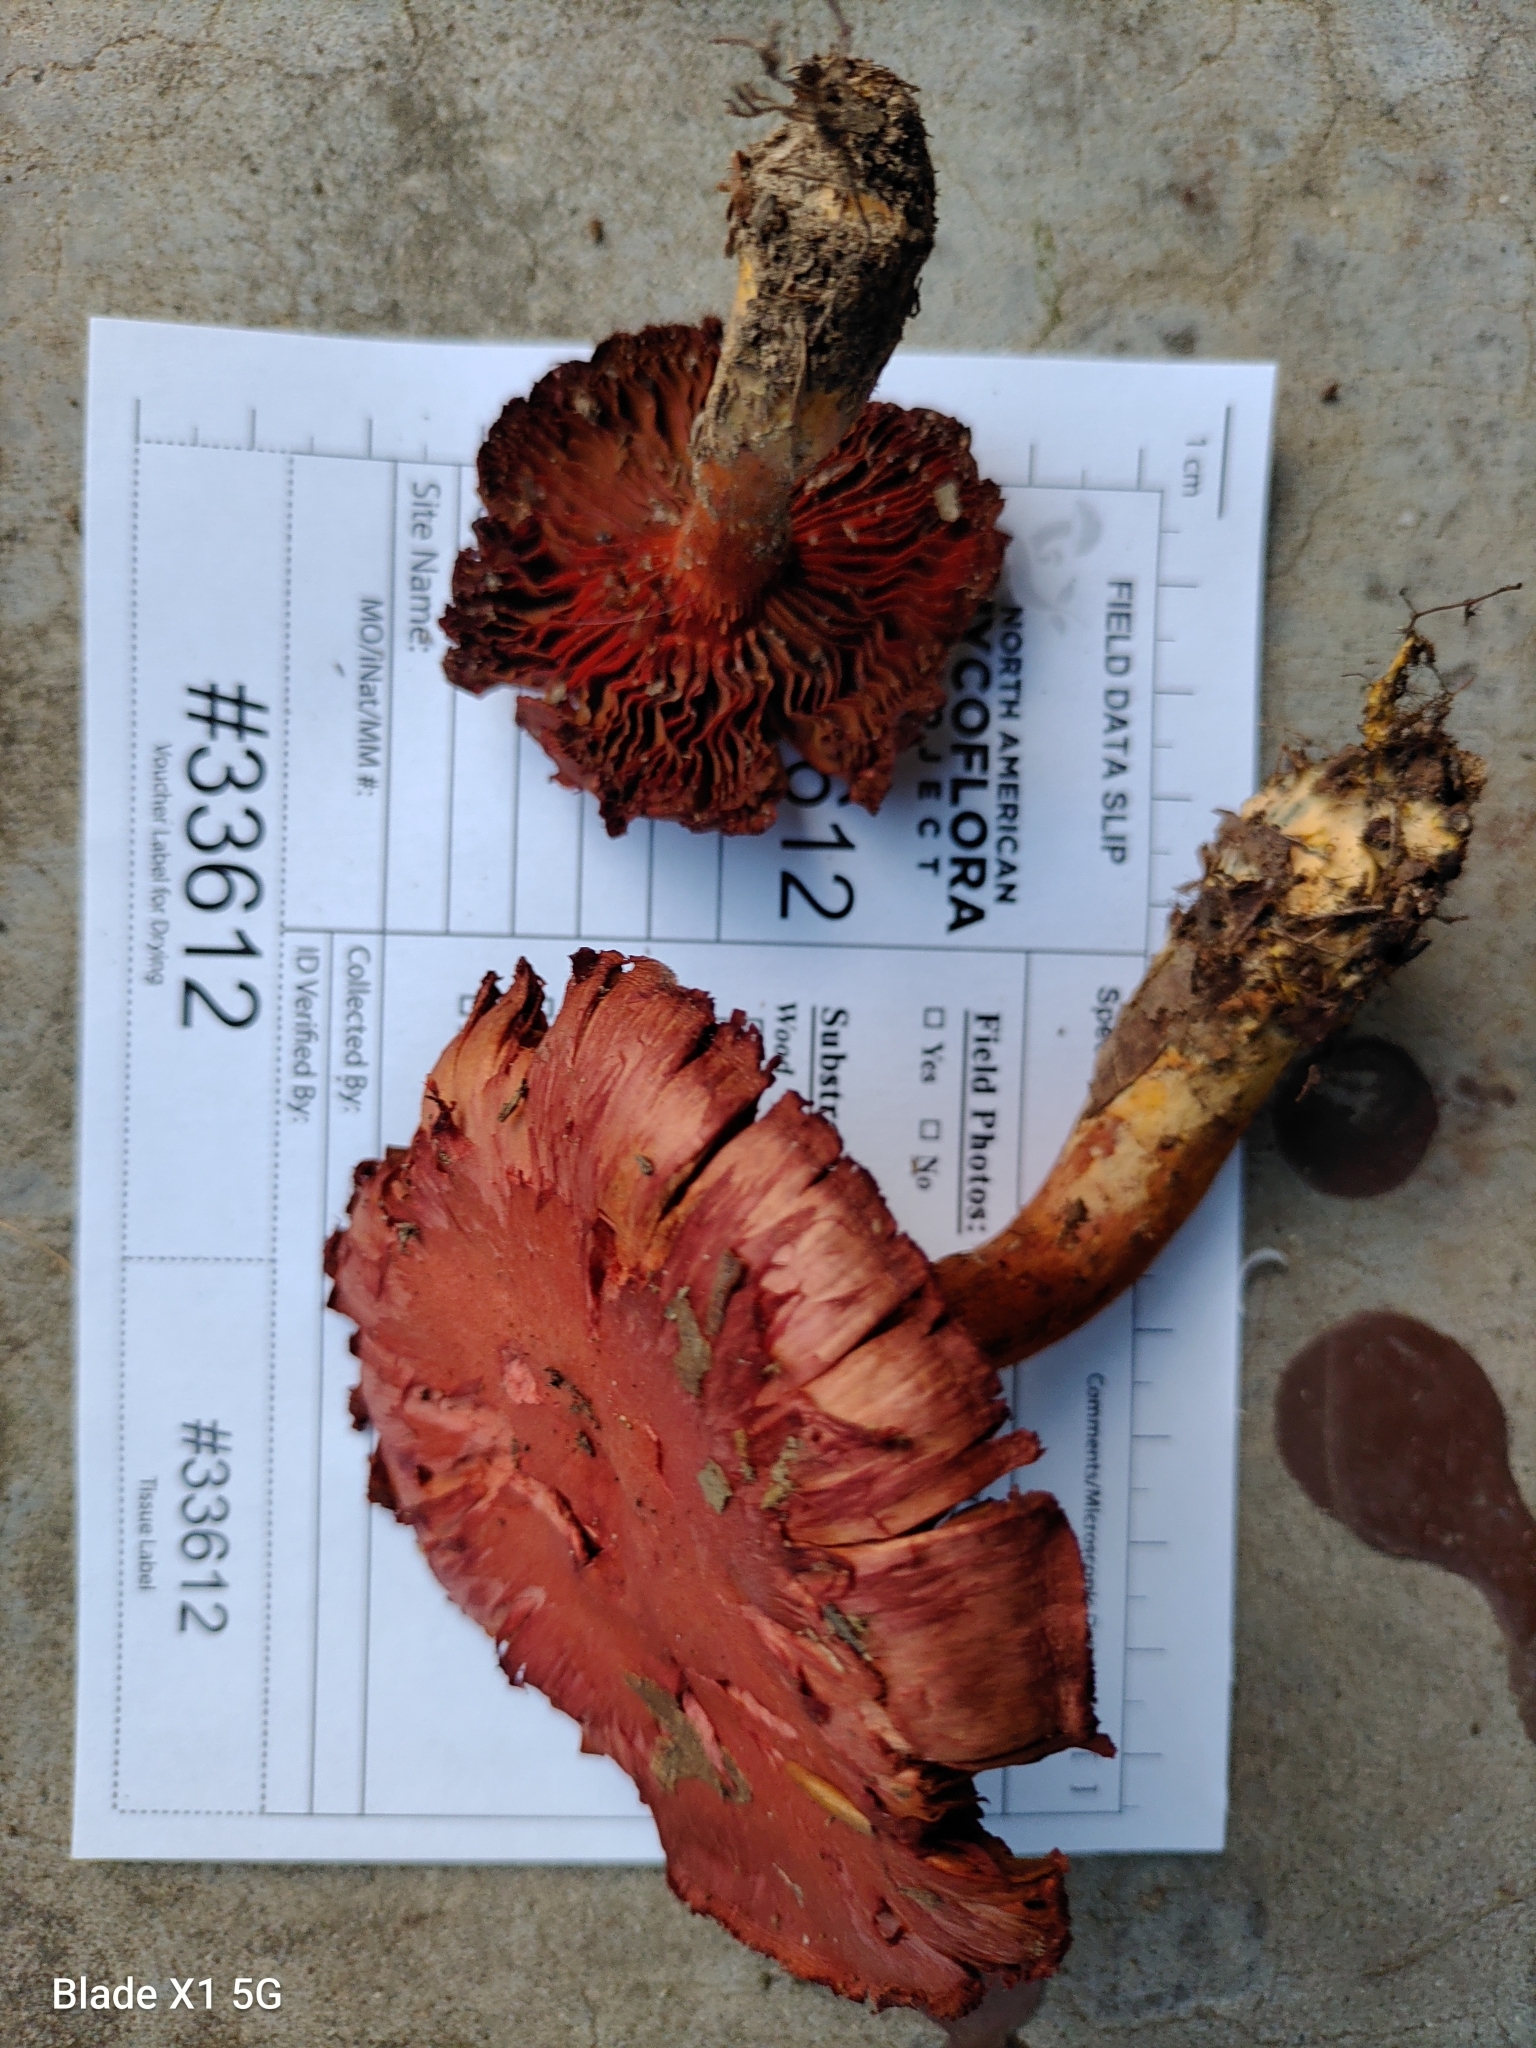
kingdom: Fungi
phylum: Basidiomycota
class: Agaricomycetes
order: Agaricales
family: Cortinariaceae
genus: Cortinarius
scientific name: Cortinarius harrisonii
